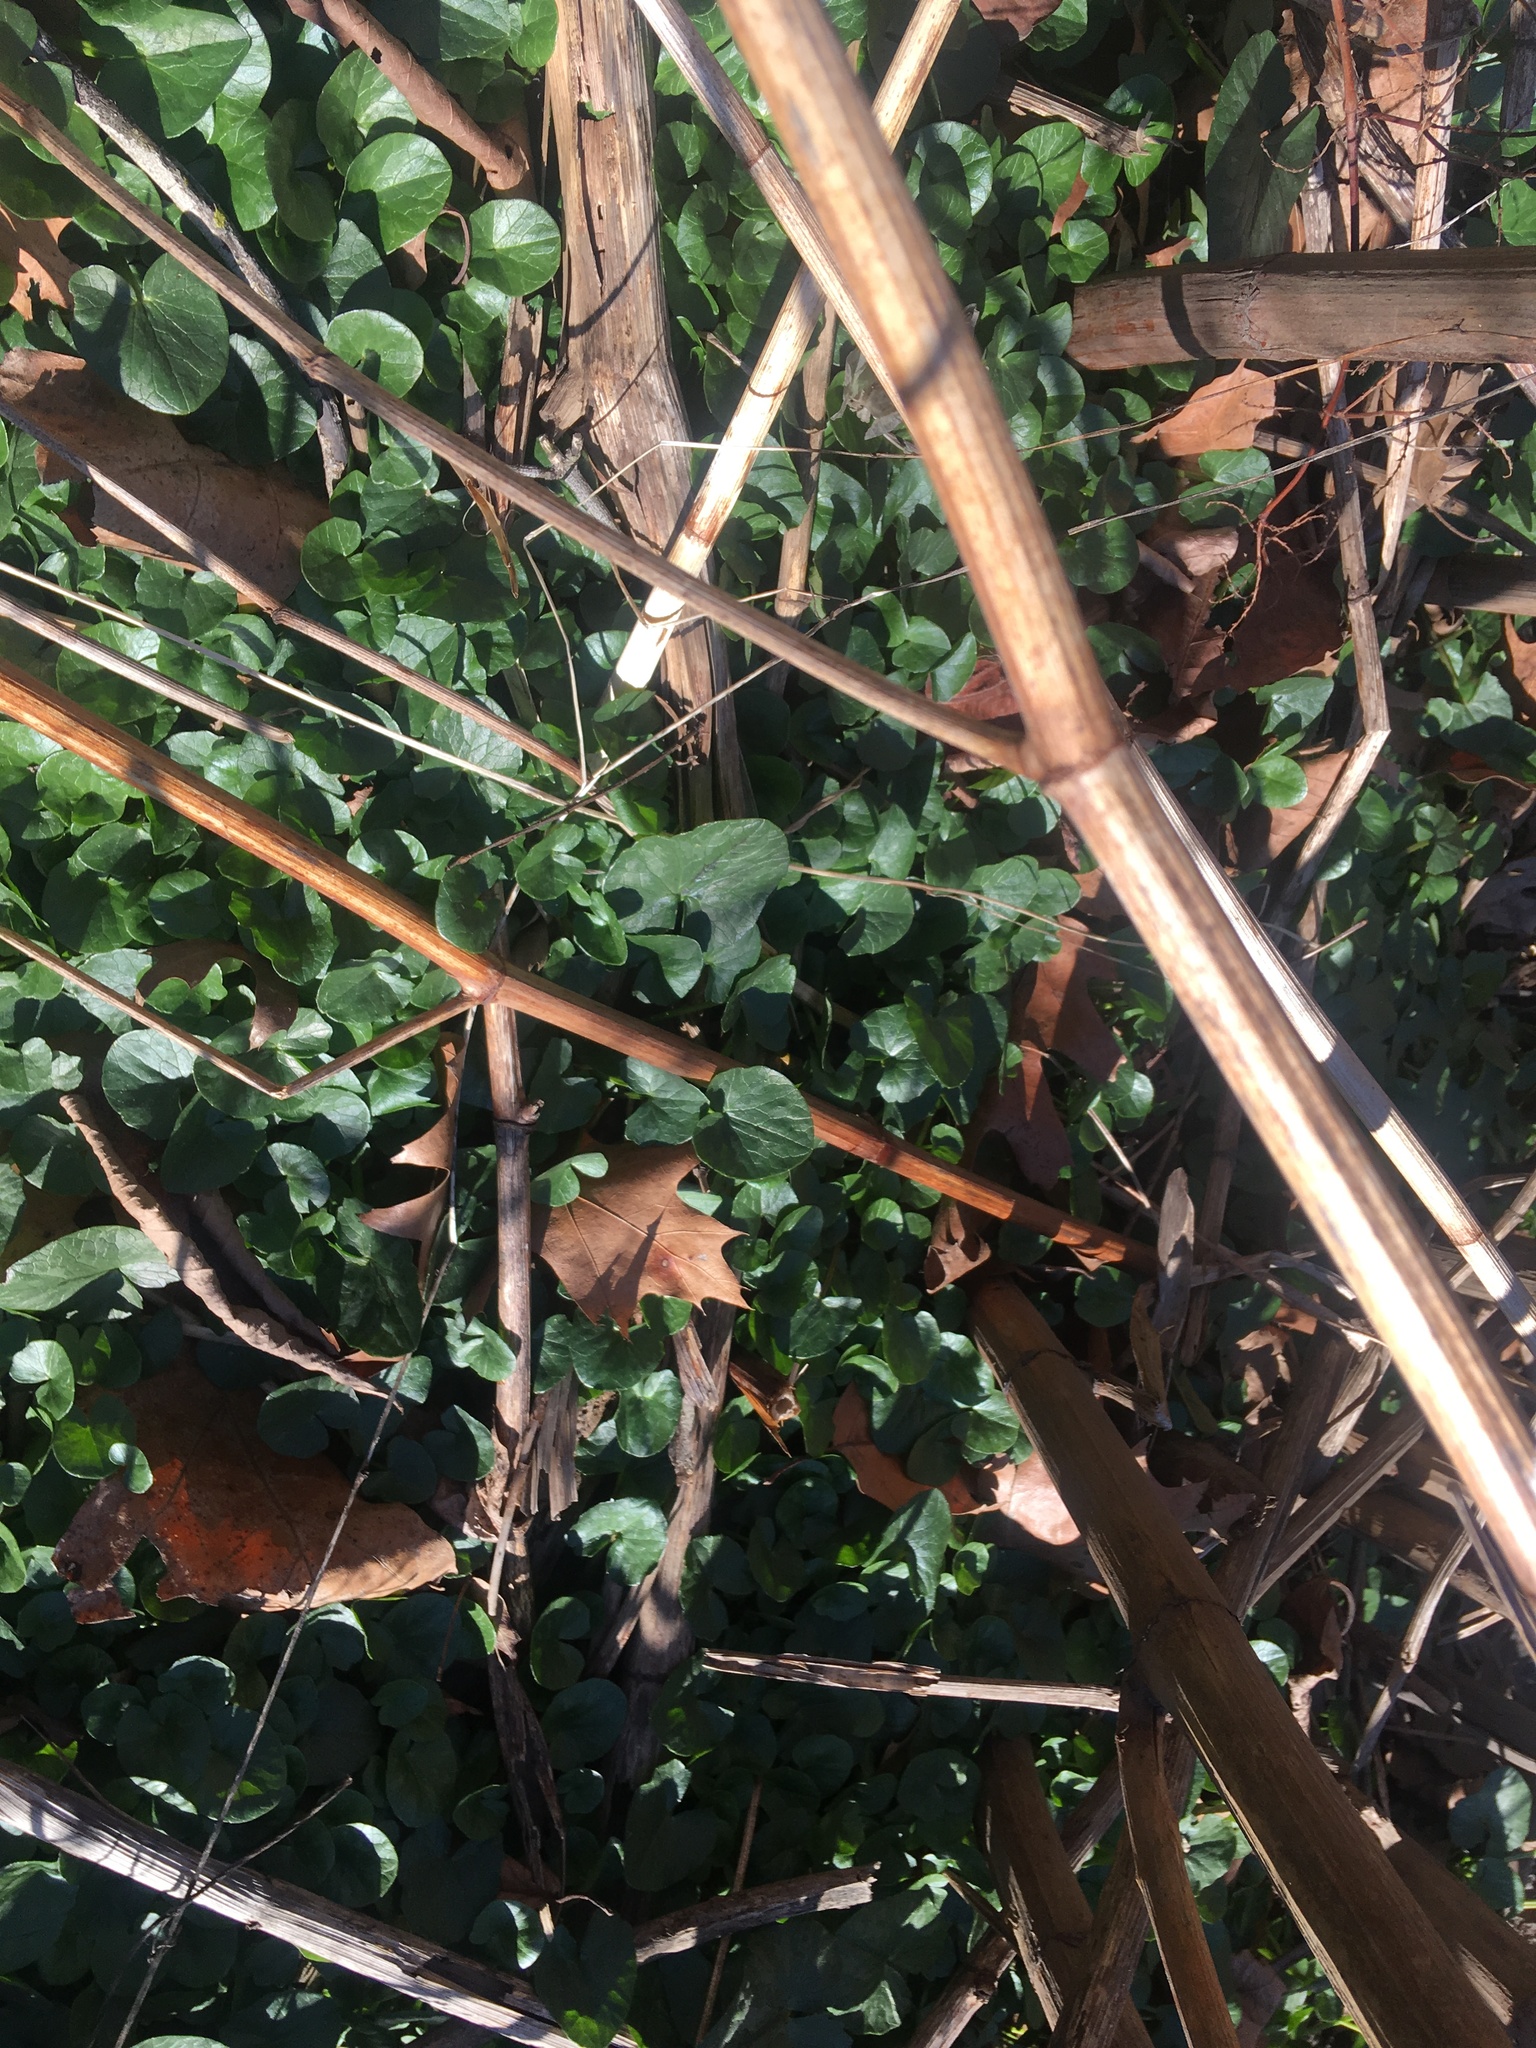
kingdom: Plantae
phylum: Tracheophyta
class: Magnoliopsida
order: Ranunculales
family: Ranunculaceae
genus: Ficaria
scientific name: Ficaria verna
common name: Lesser celandine
